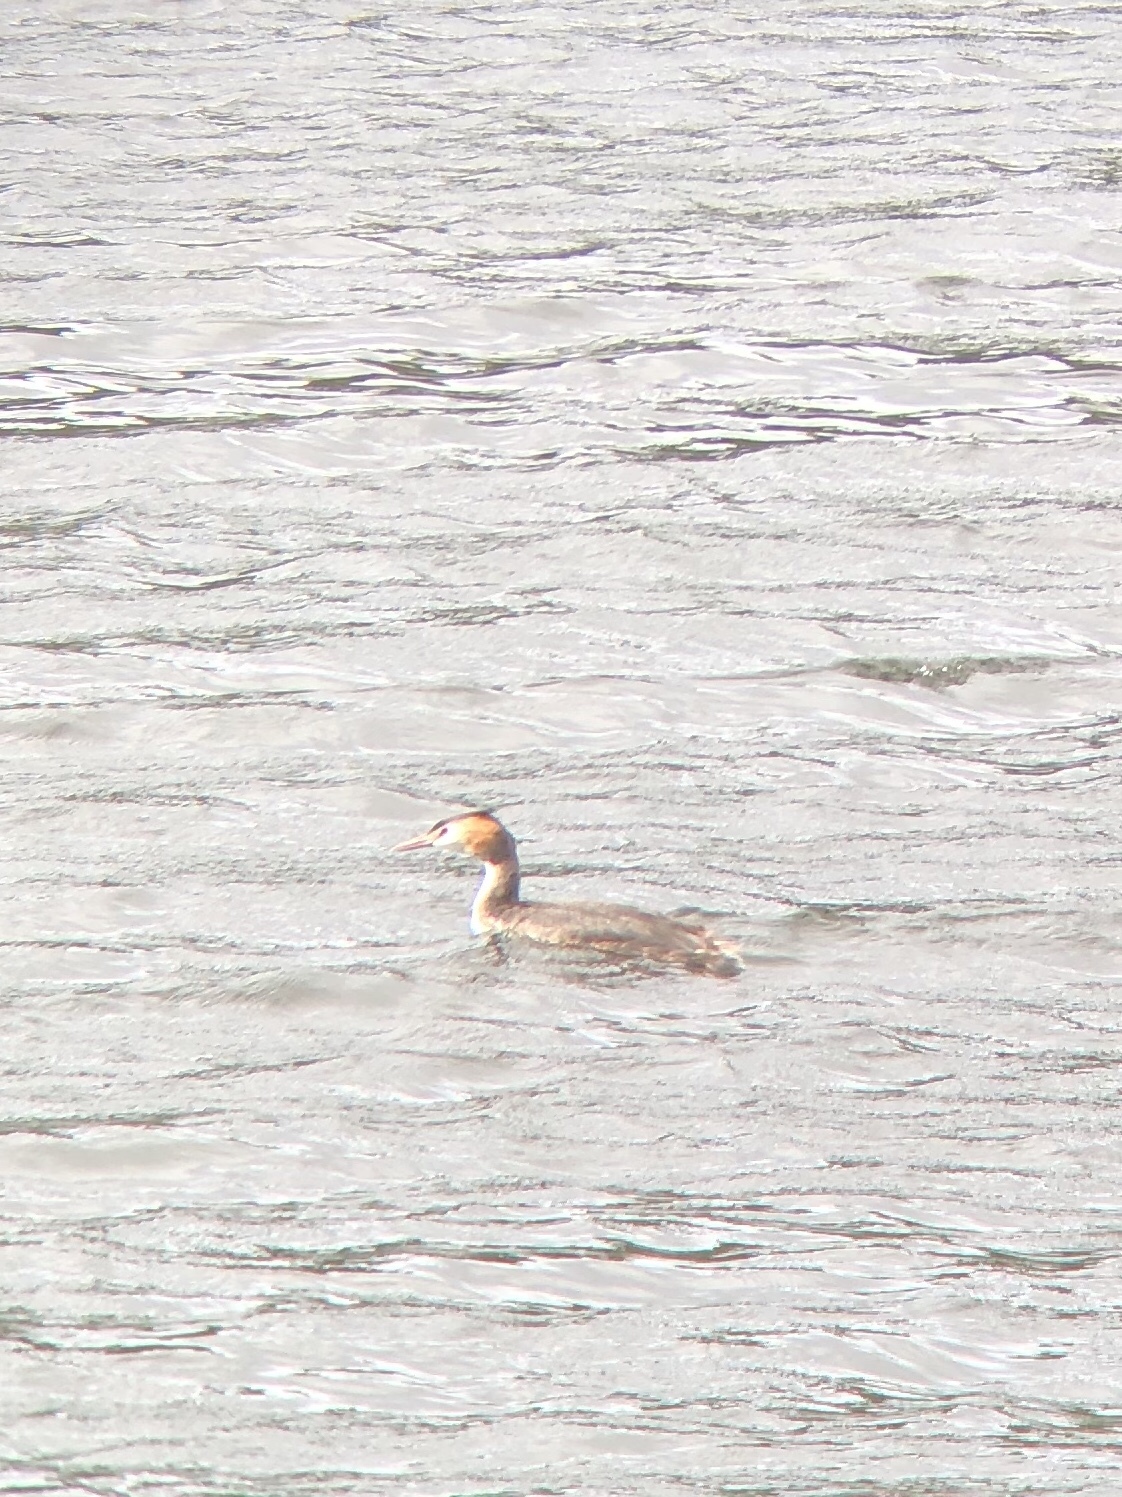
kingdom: Animalia
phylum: Chordata
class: Aves
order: Podicipediformes
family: Podicipedidae
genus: Podiceps
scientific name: Podiceps cristatus
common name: Great crested grebe
